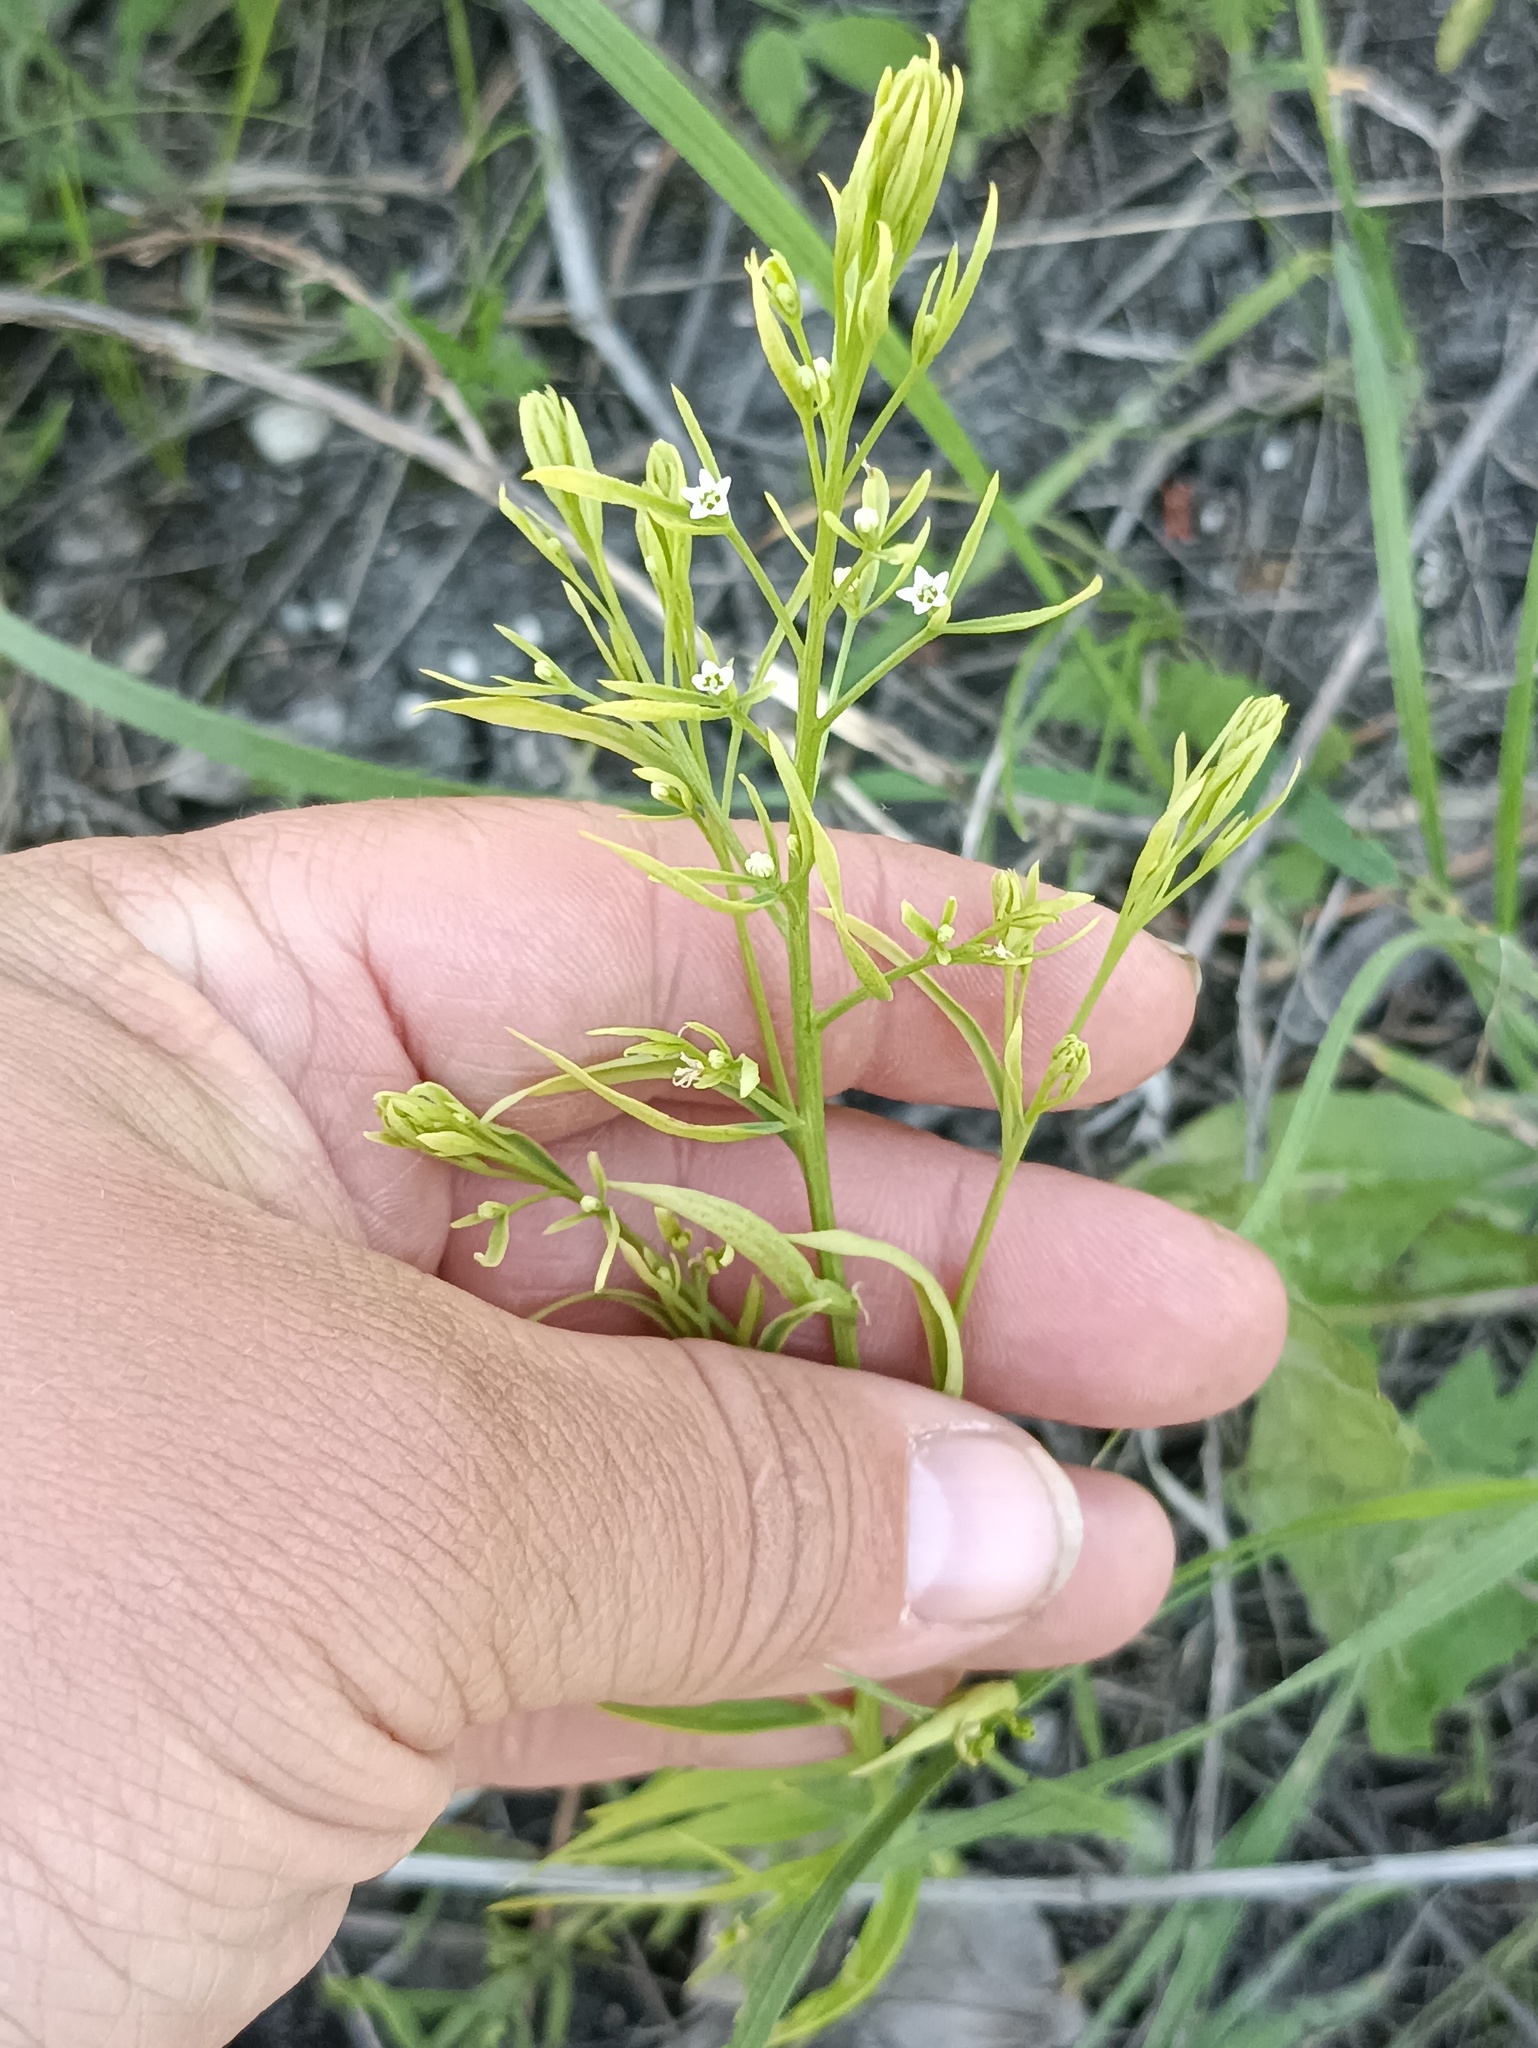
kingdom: Plantae
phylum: Tracheophyta
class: Magnoliopsida
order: Santalales
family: Thesiaceae
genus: Thesium
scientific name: Thesium ramosum
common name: Field thesium
